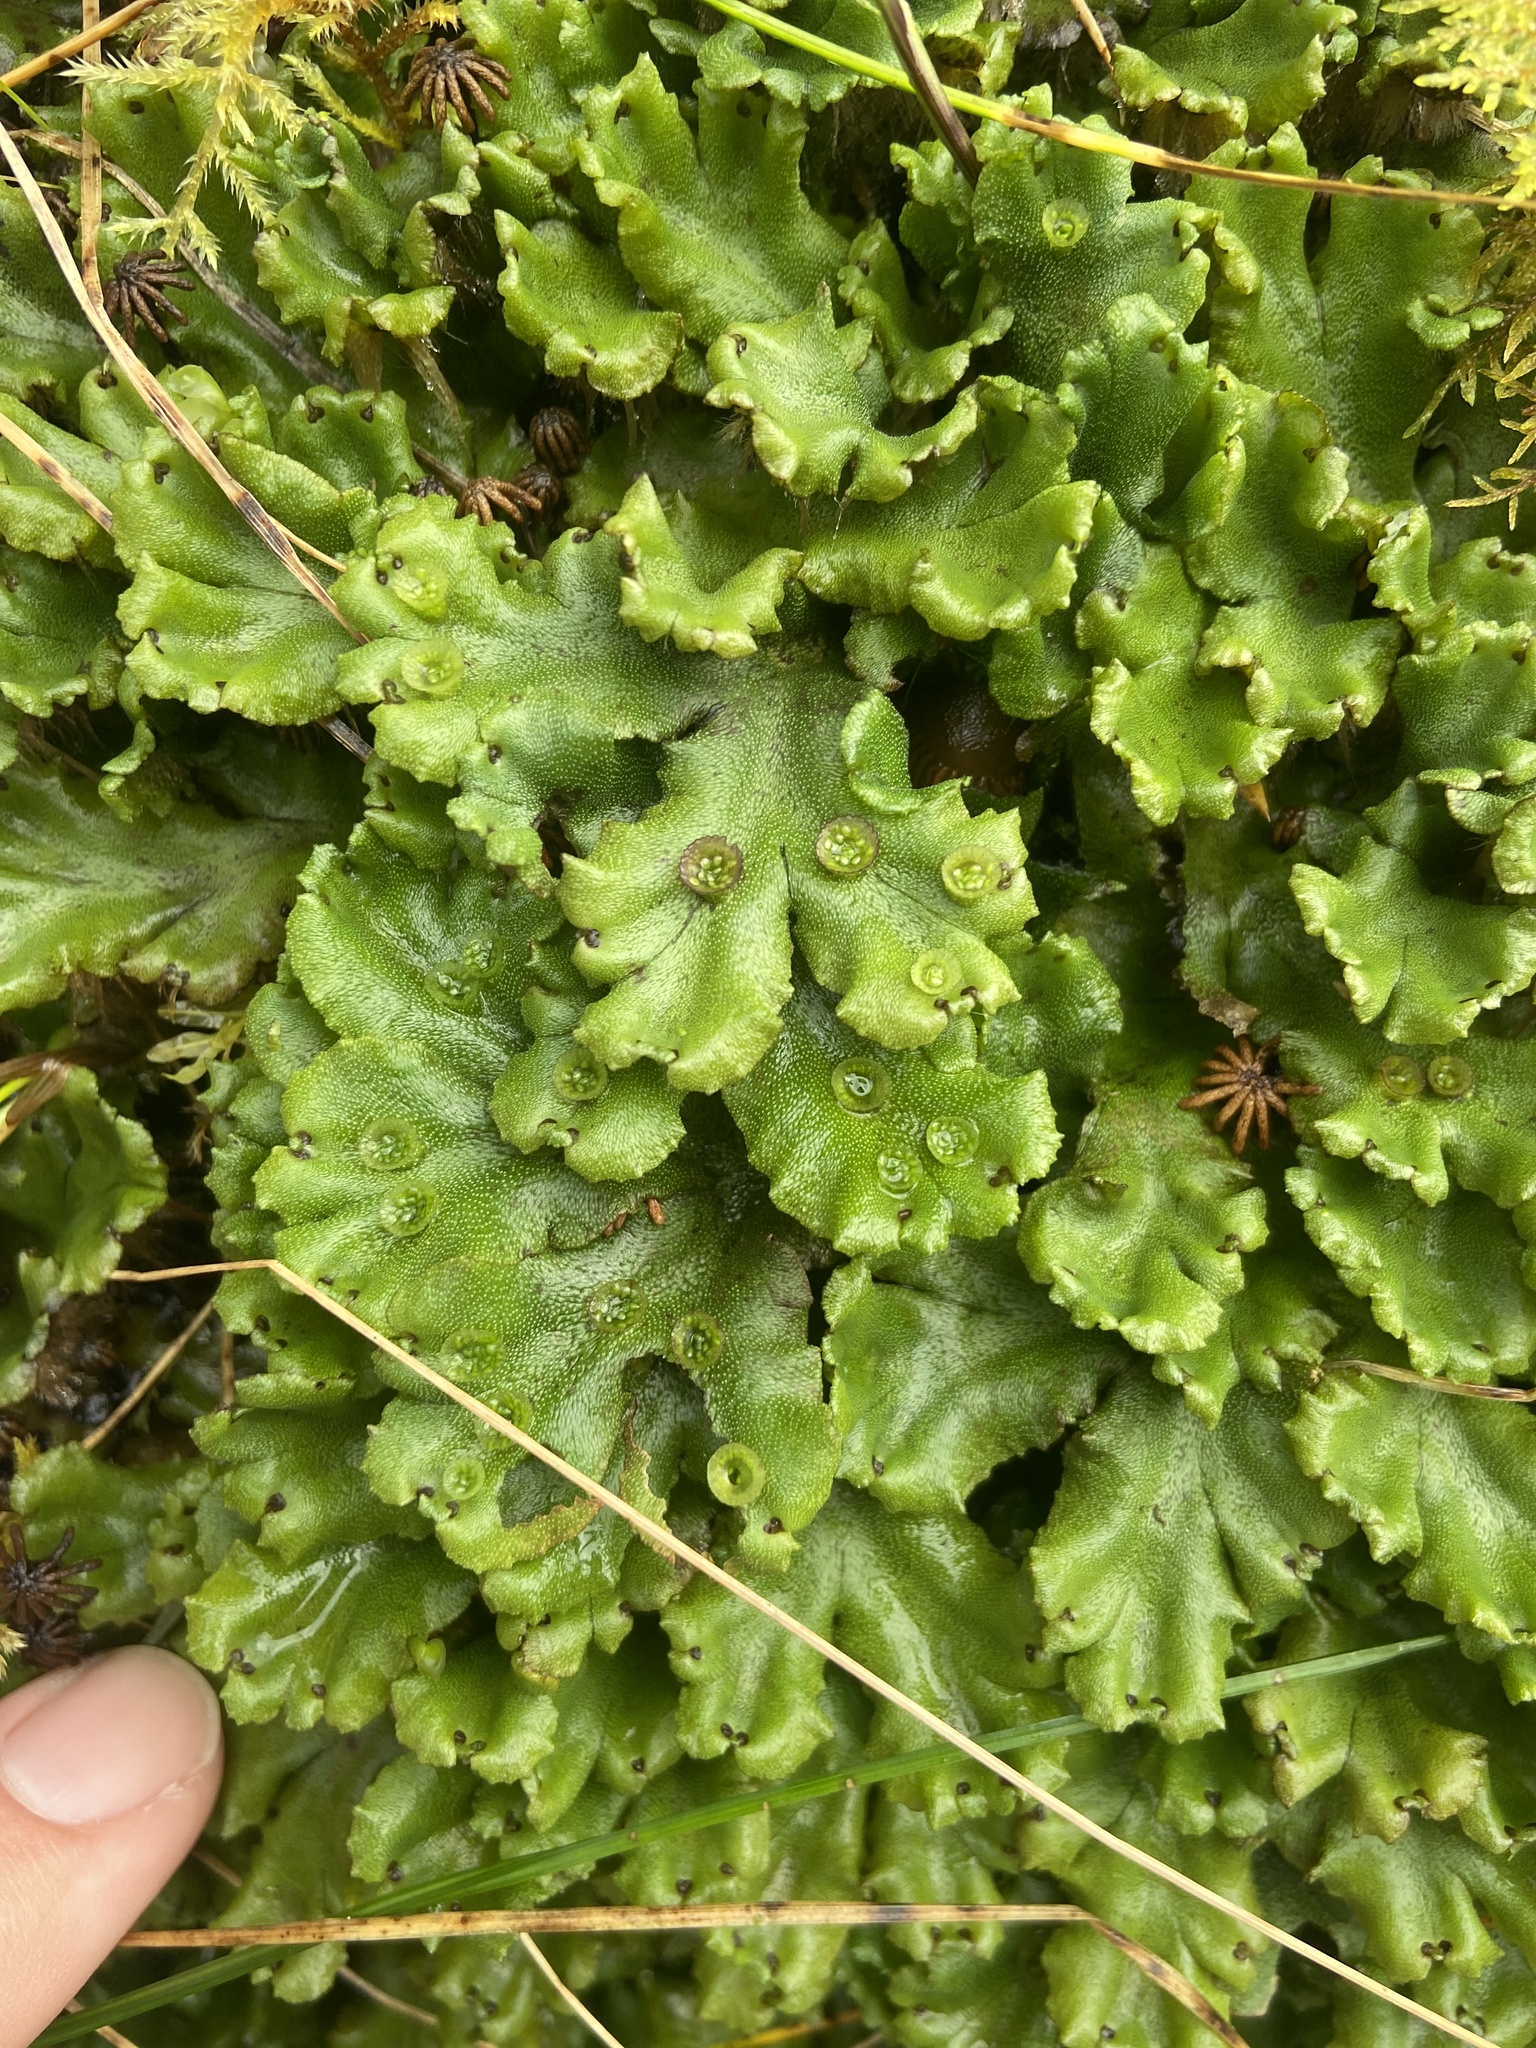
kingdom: Plantae
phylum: Marchantiophyta
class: Marchantiopsida
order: Marchantiales
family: Marchantiaceae
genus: Marchantia
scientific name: Marchantia polymorpha
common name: Common liverwort
